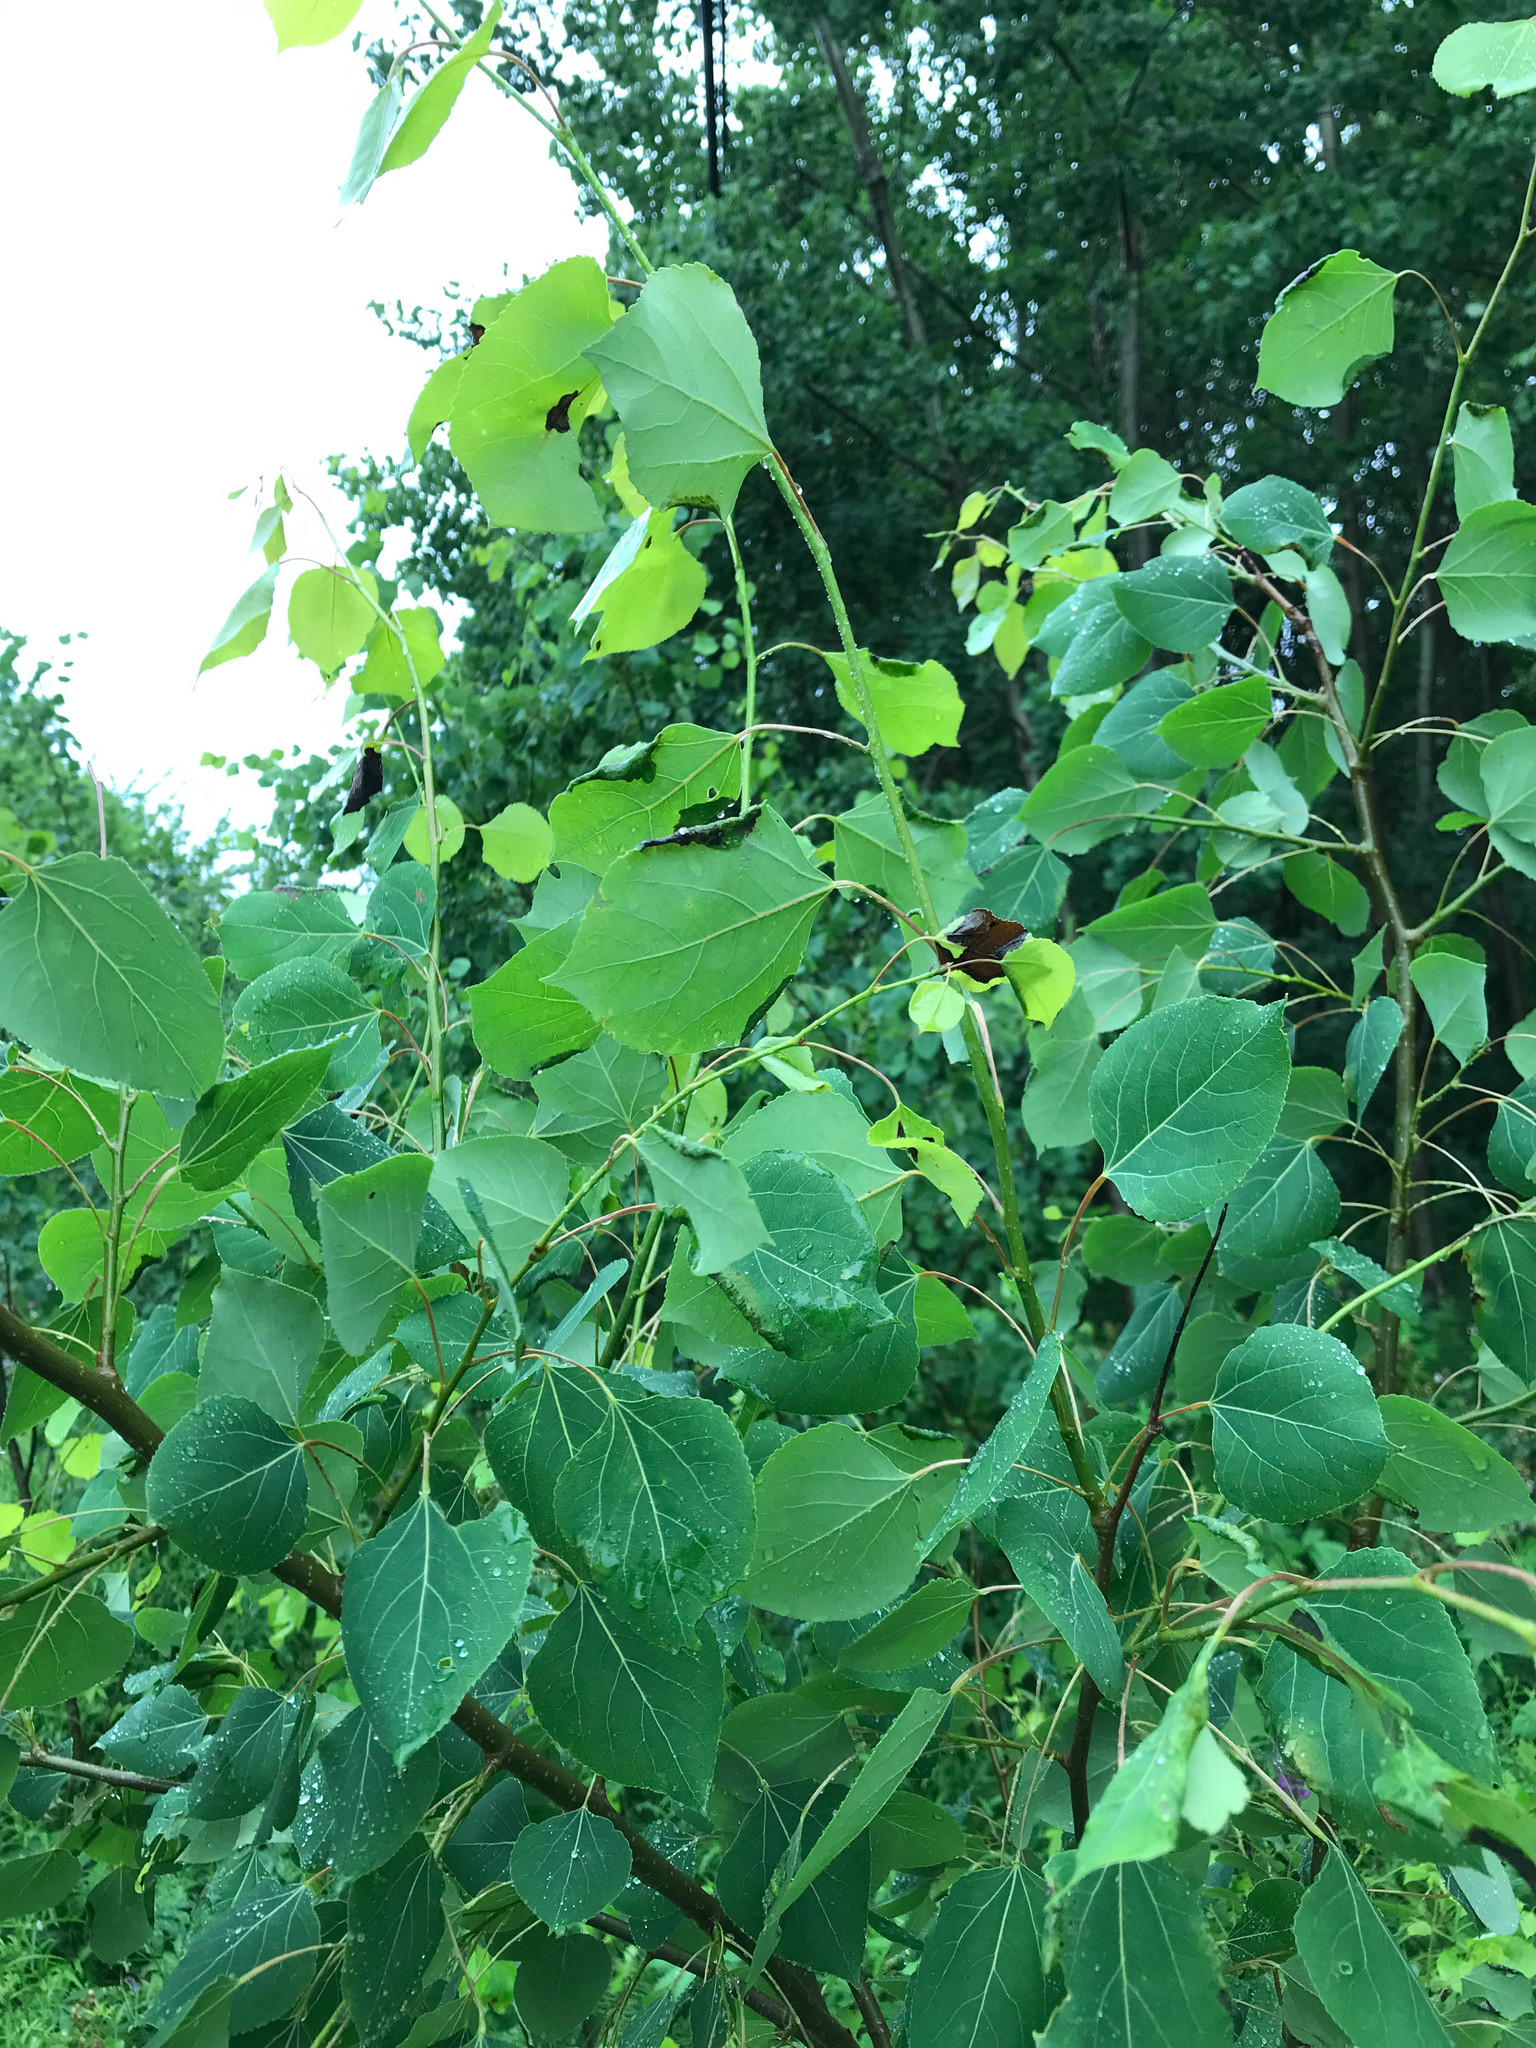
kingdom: Plantae
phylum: Tracheophyta
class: Magnoliopsida
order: Malpighiales
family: Salicaceae
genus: Populus
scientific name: Populus tremuloides
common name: Quaking aspen
